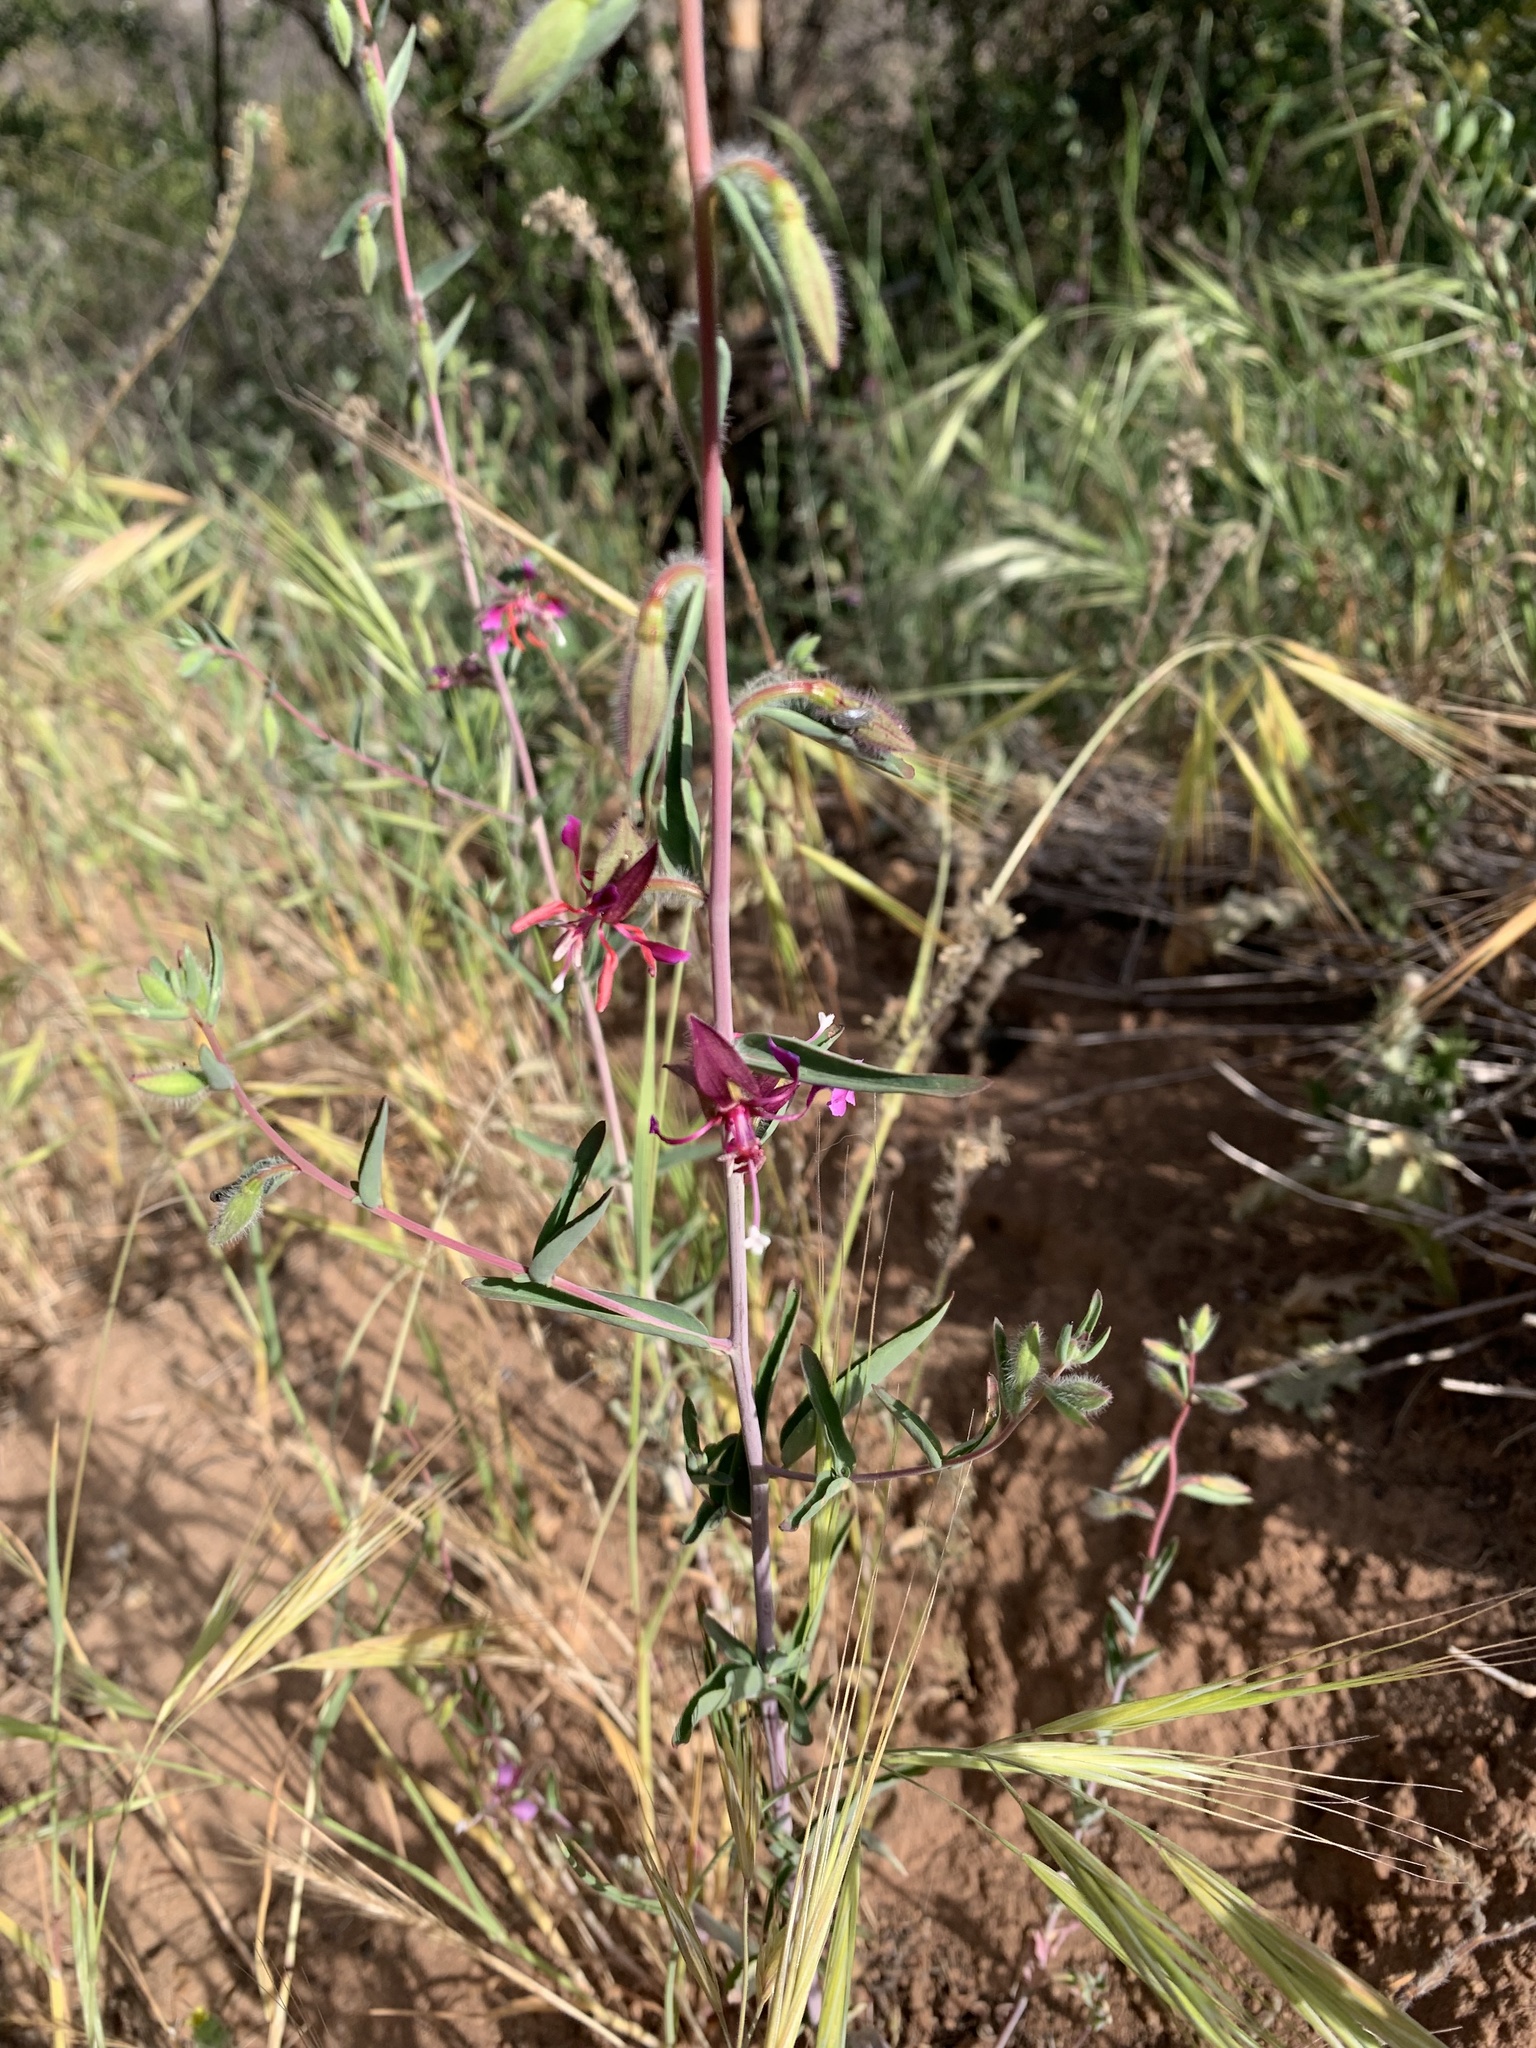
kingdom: Plantae
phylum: Tracheophyta
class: Magnoliopsida
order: Myrtales
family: Onagraceae
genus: Clarkia
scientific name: Clarkia unguiculata
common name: Clarkia
